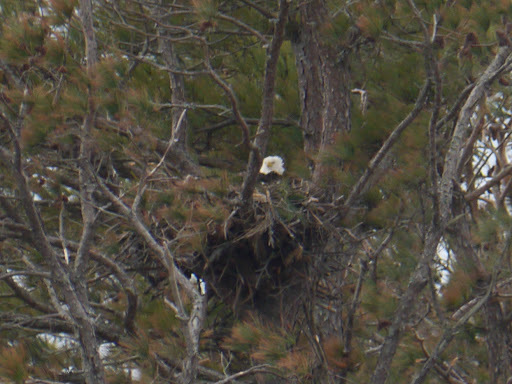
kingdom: Animalia
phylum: Chordata
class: Aves
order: Accipitriformes
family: Accipitridae
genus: Haliaeetus
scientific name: Haliaeetus leucocephalus
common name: Bald eagle
